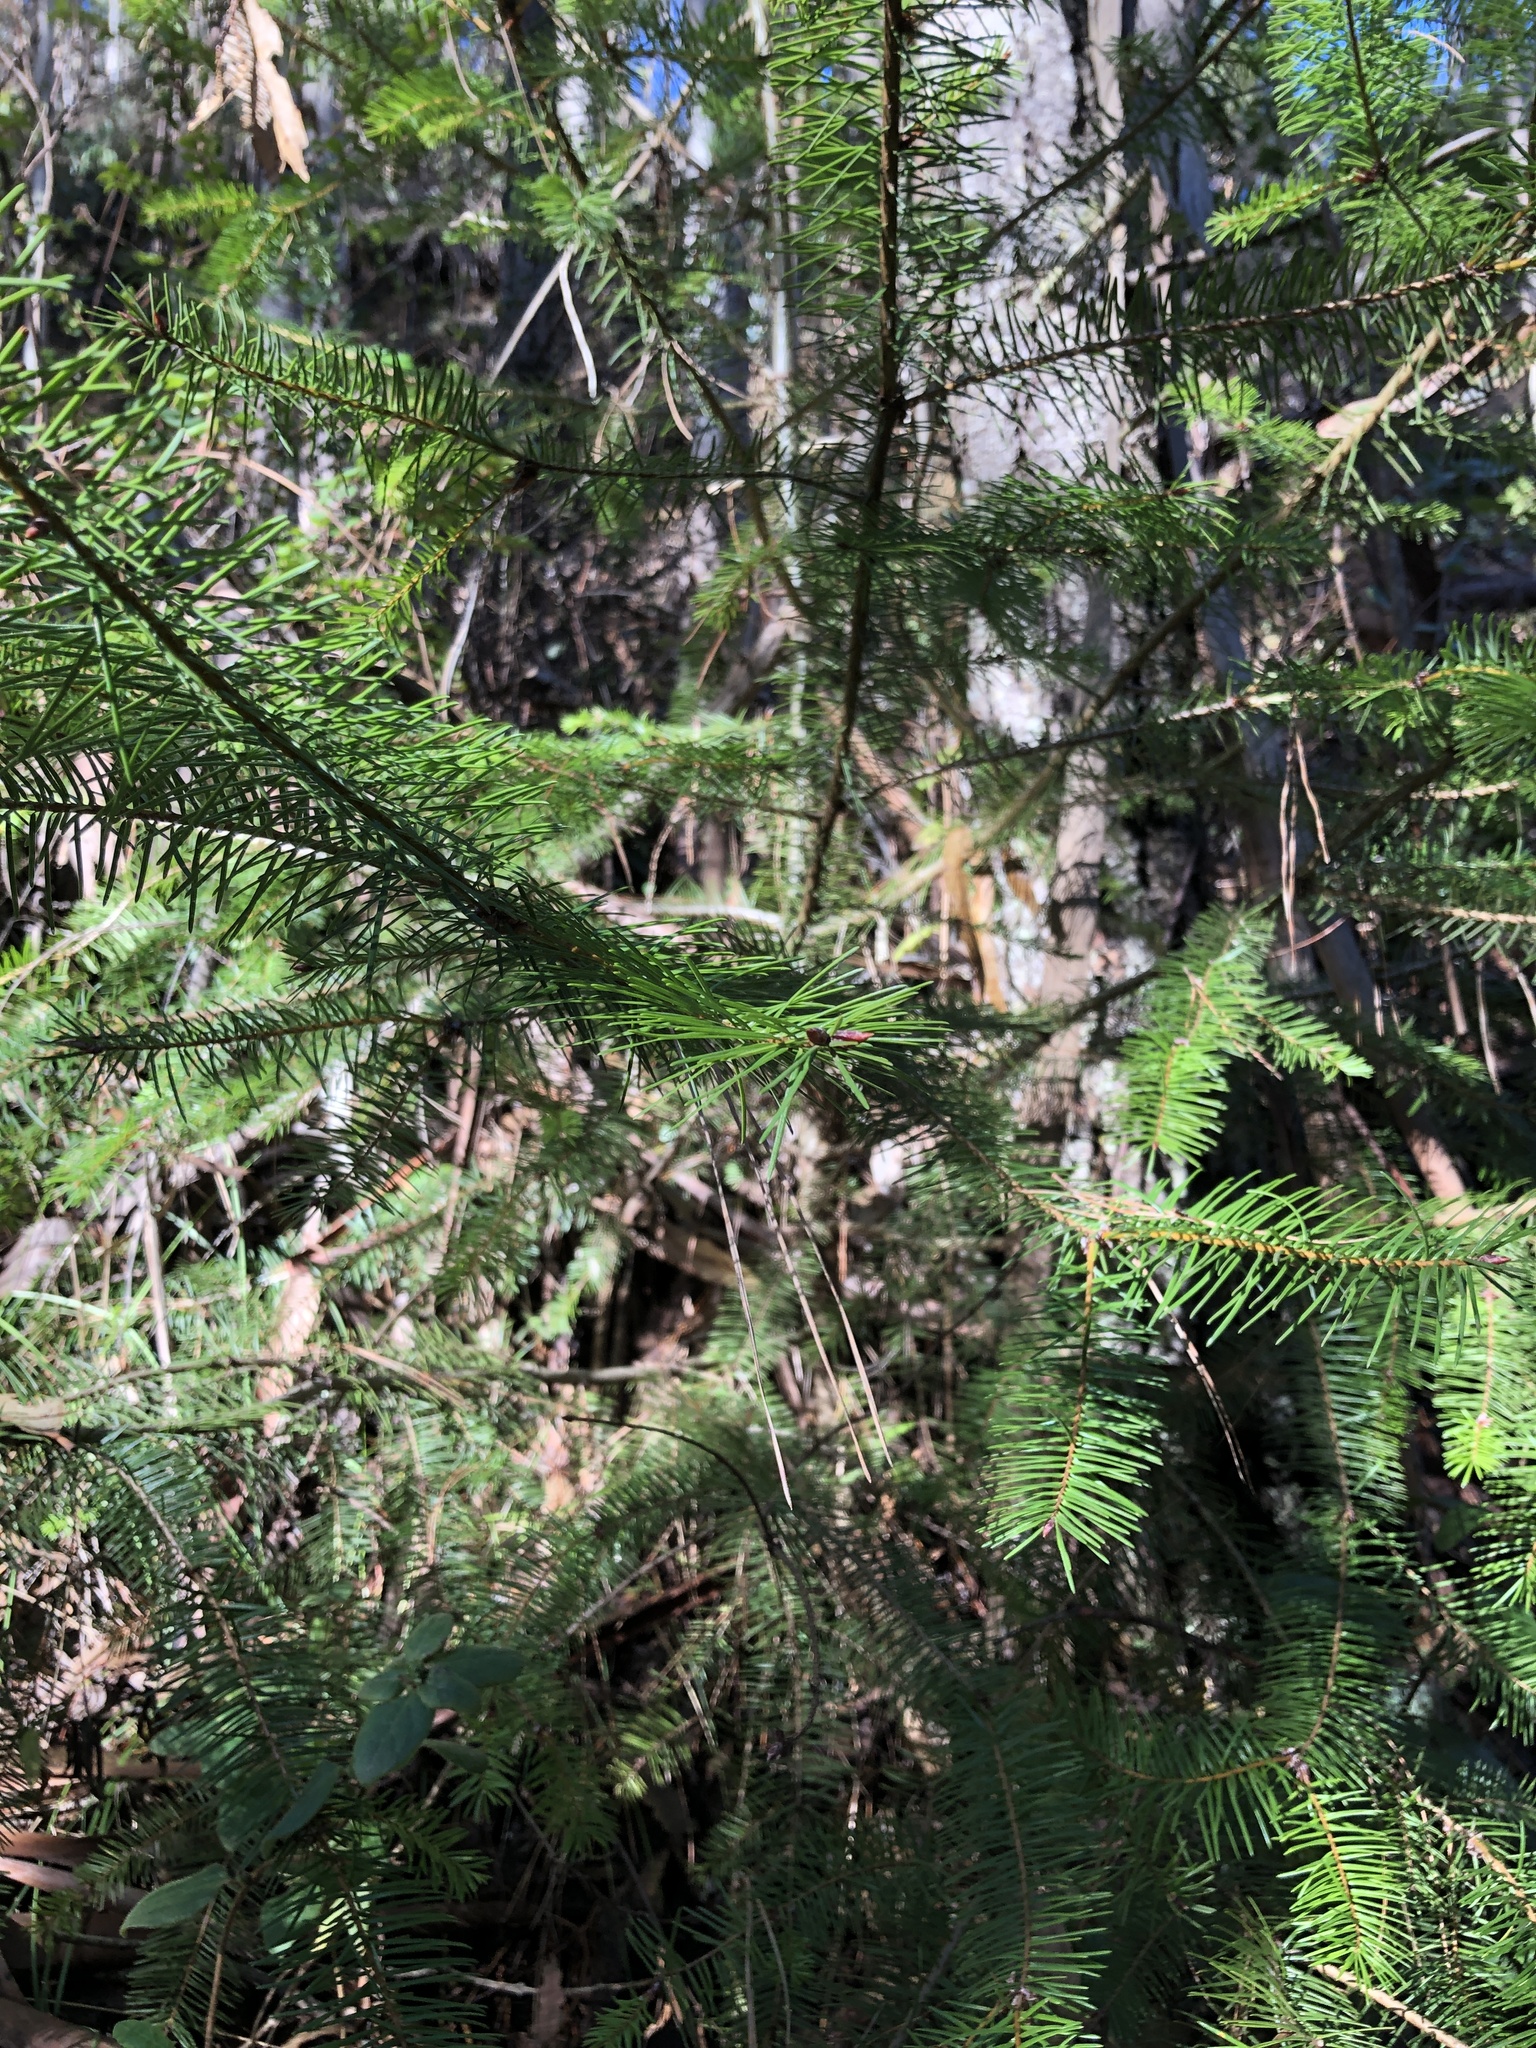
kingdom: Plantae
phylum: Tracheophyta
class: Pinopsida
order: Pinales
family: Pinaceae
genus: Pseudotsuga
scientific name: Pseudotsuga menziesii
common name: Douglas fir
